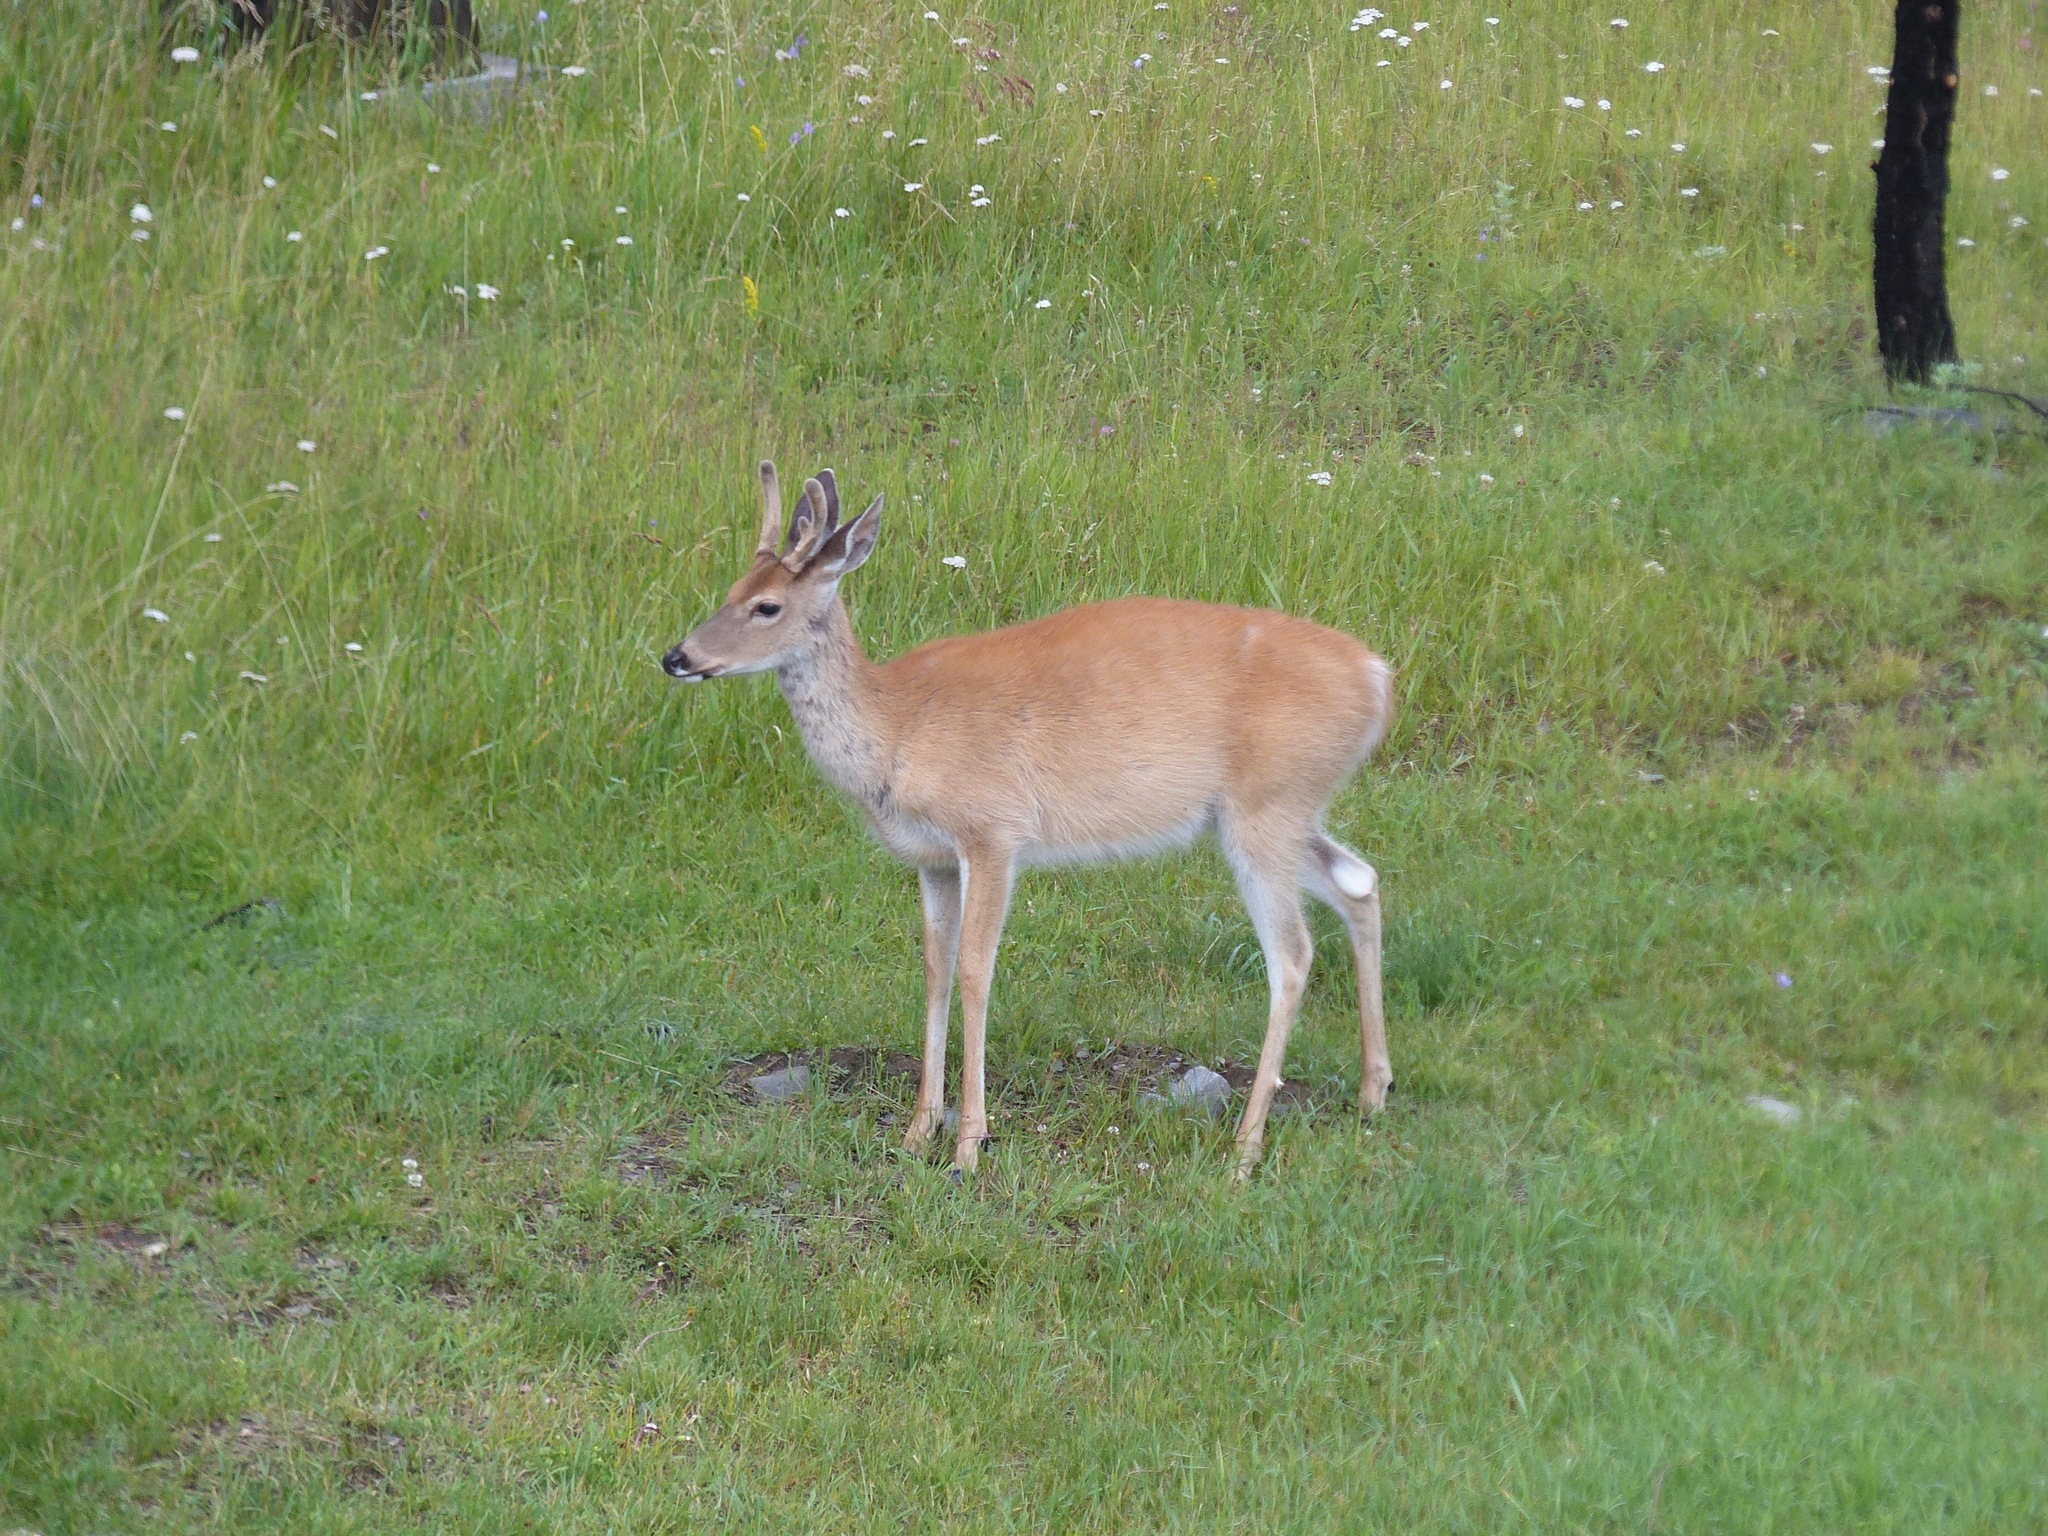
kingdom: Animalia
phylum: Chordata
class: Mammalia
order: Artiodactyla
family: Cervidae
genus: Odocoileus
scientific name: Odocoileus virginianus
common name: White-tailed deer
